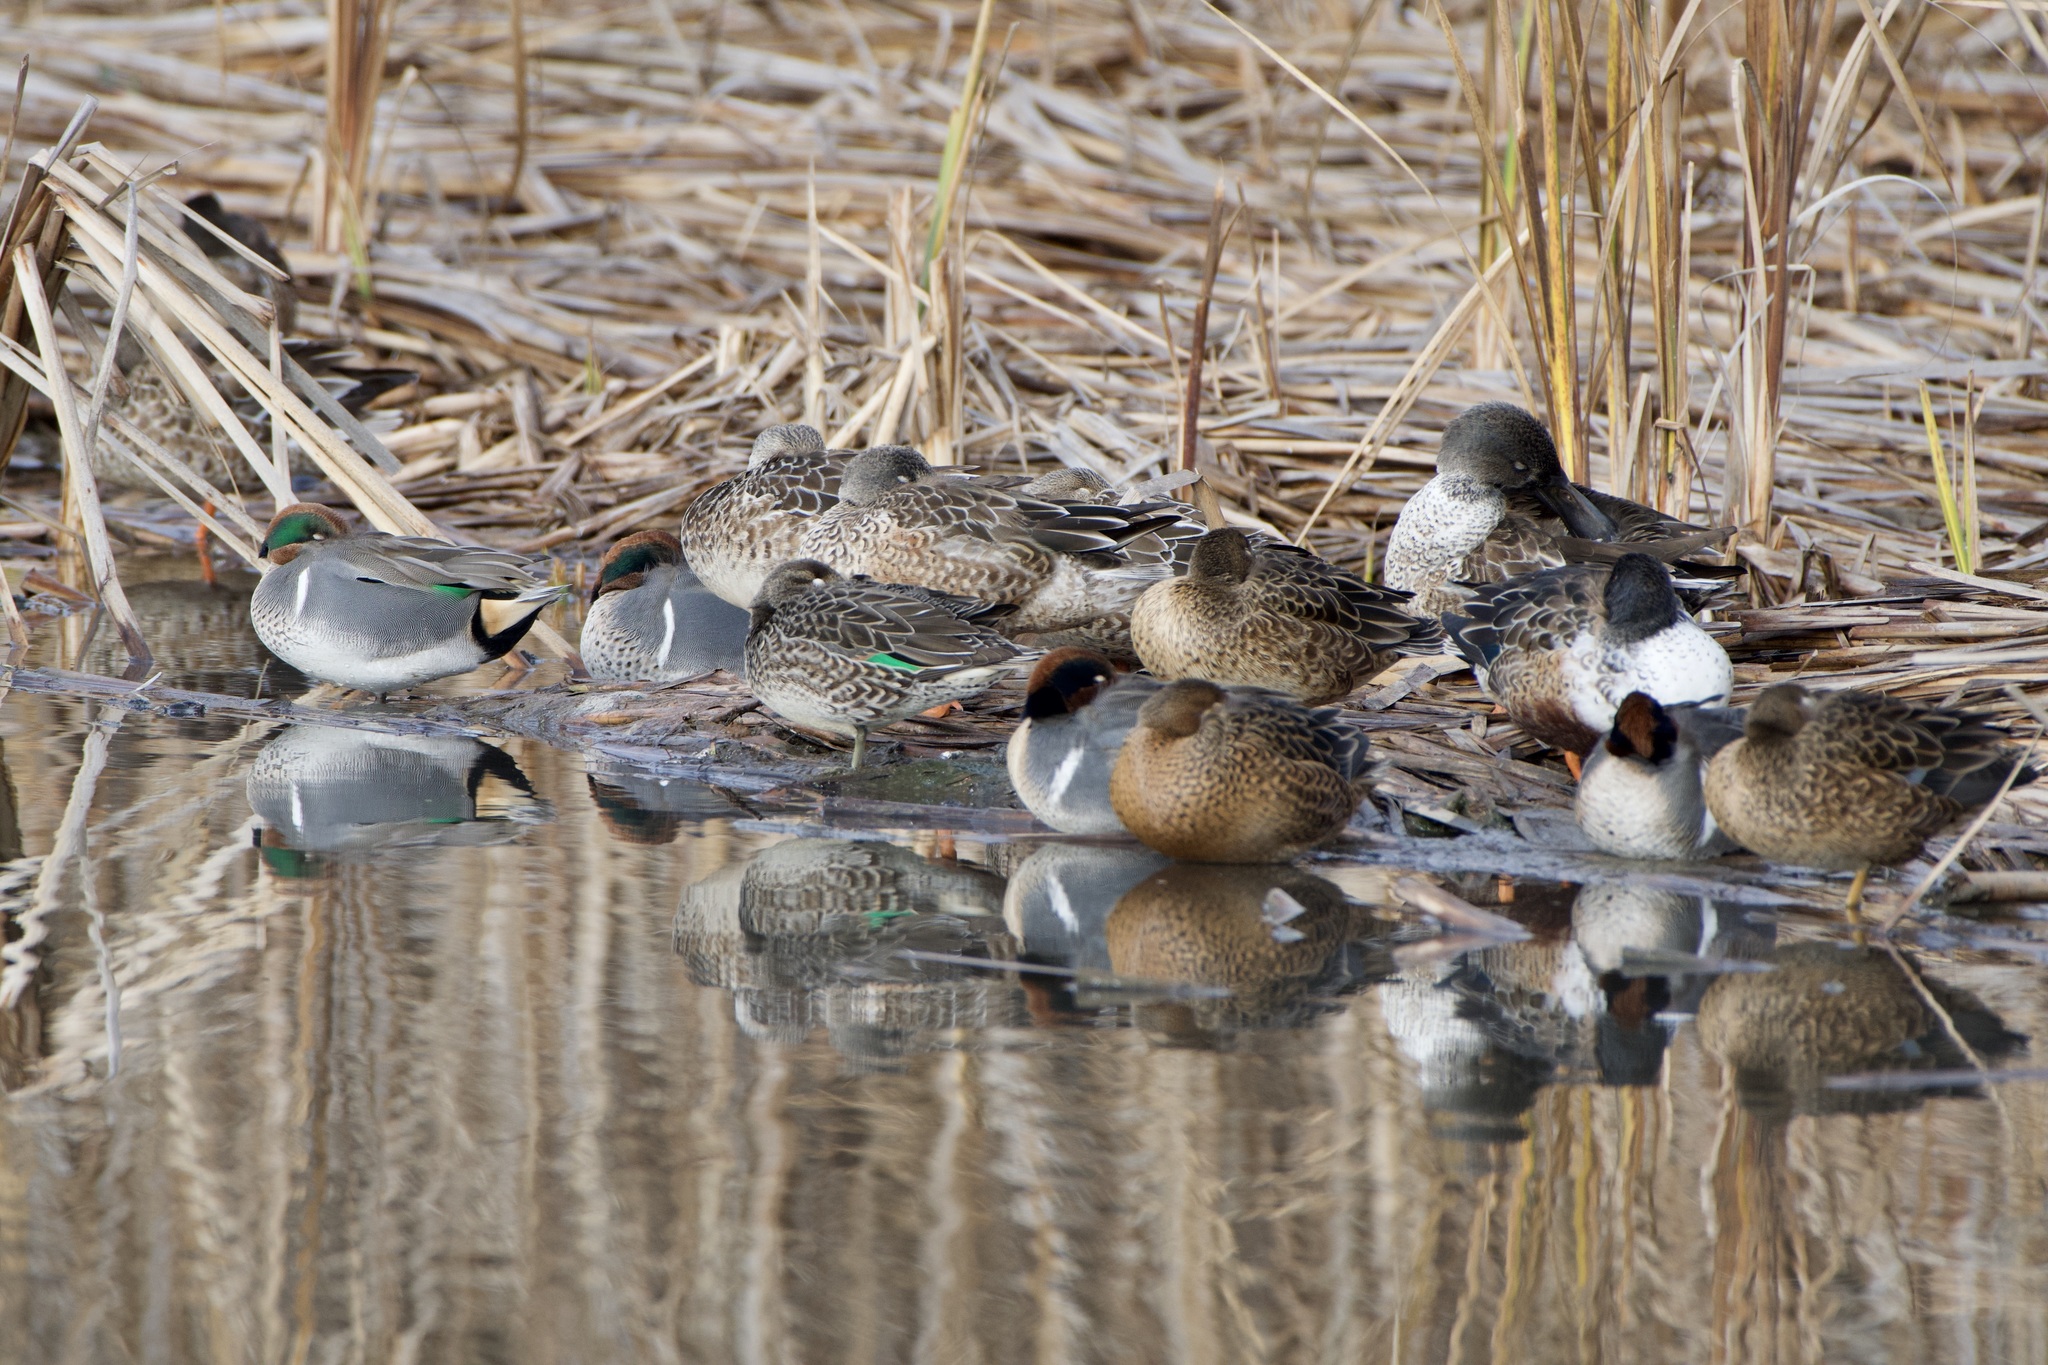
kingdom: Animalia
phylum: Chordata
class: Aves
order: Anseriformes
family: Anatidae
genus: Anas
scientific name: Anas carolinensis
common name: Green-winged teal
